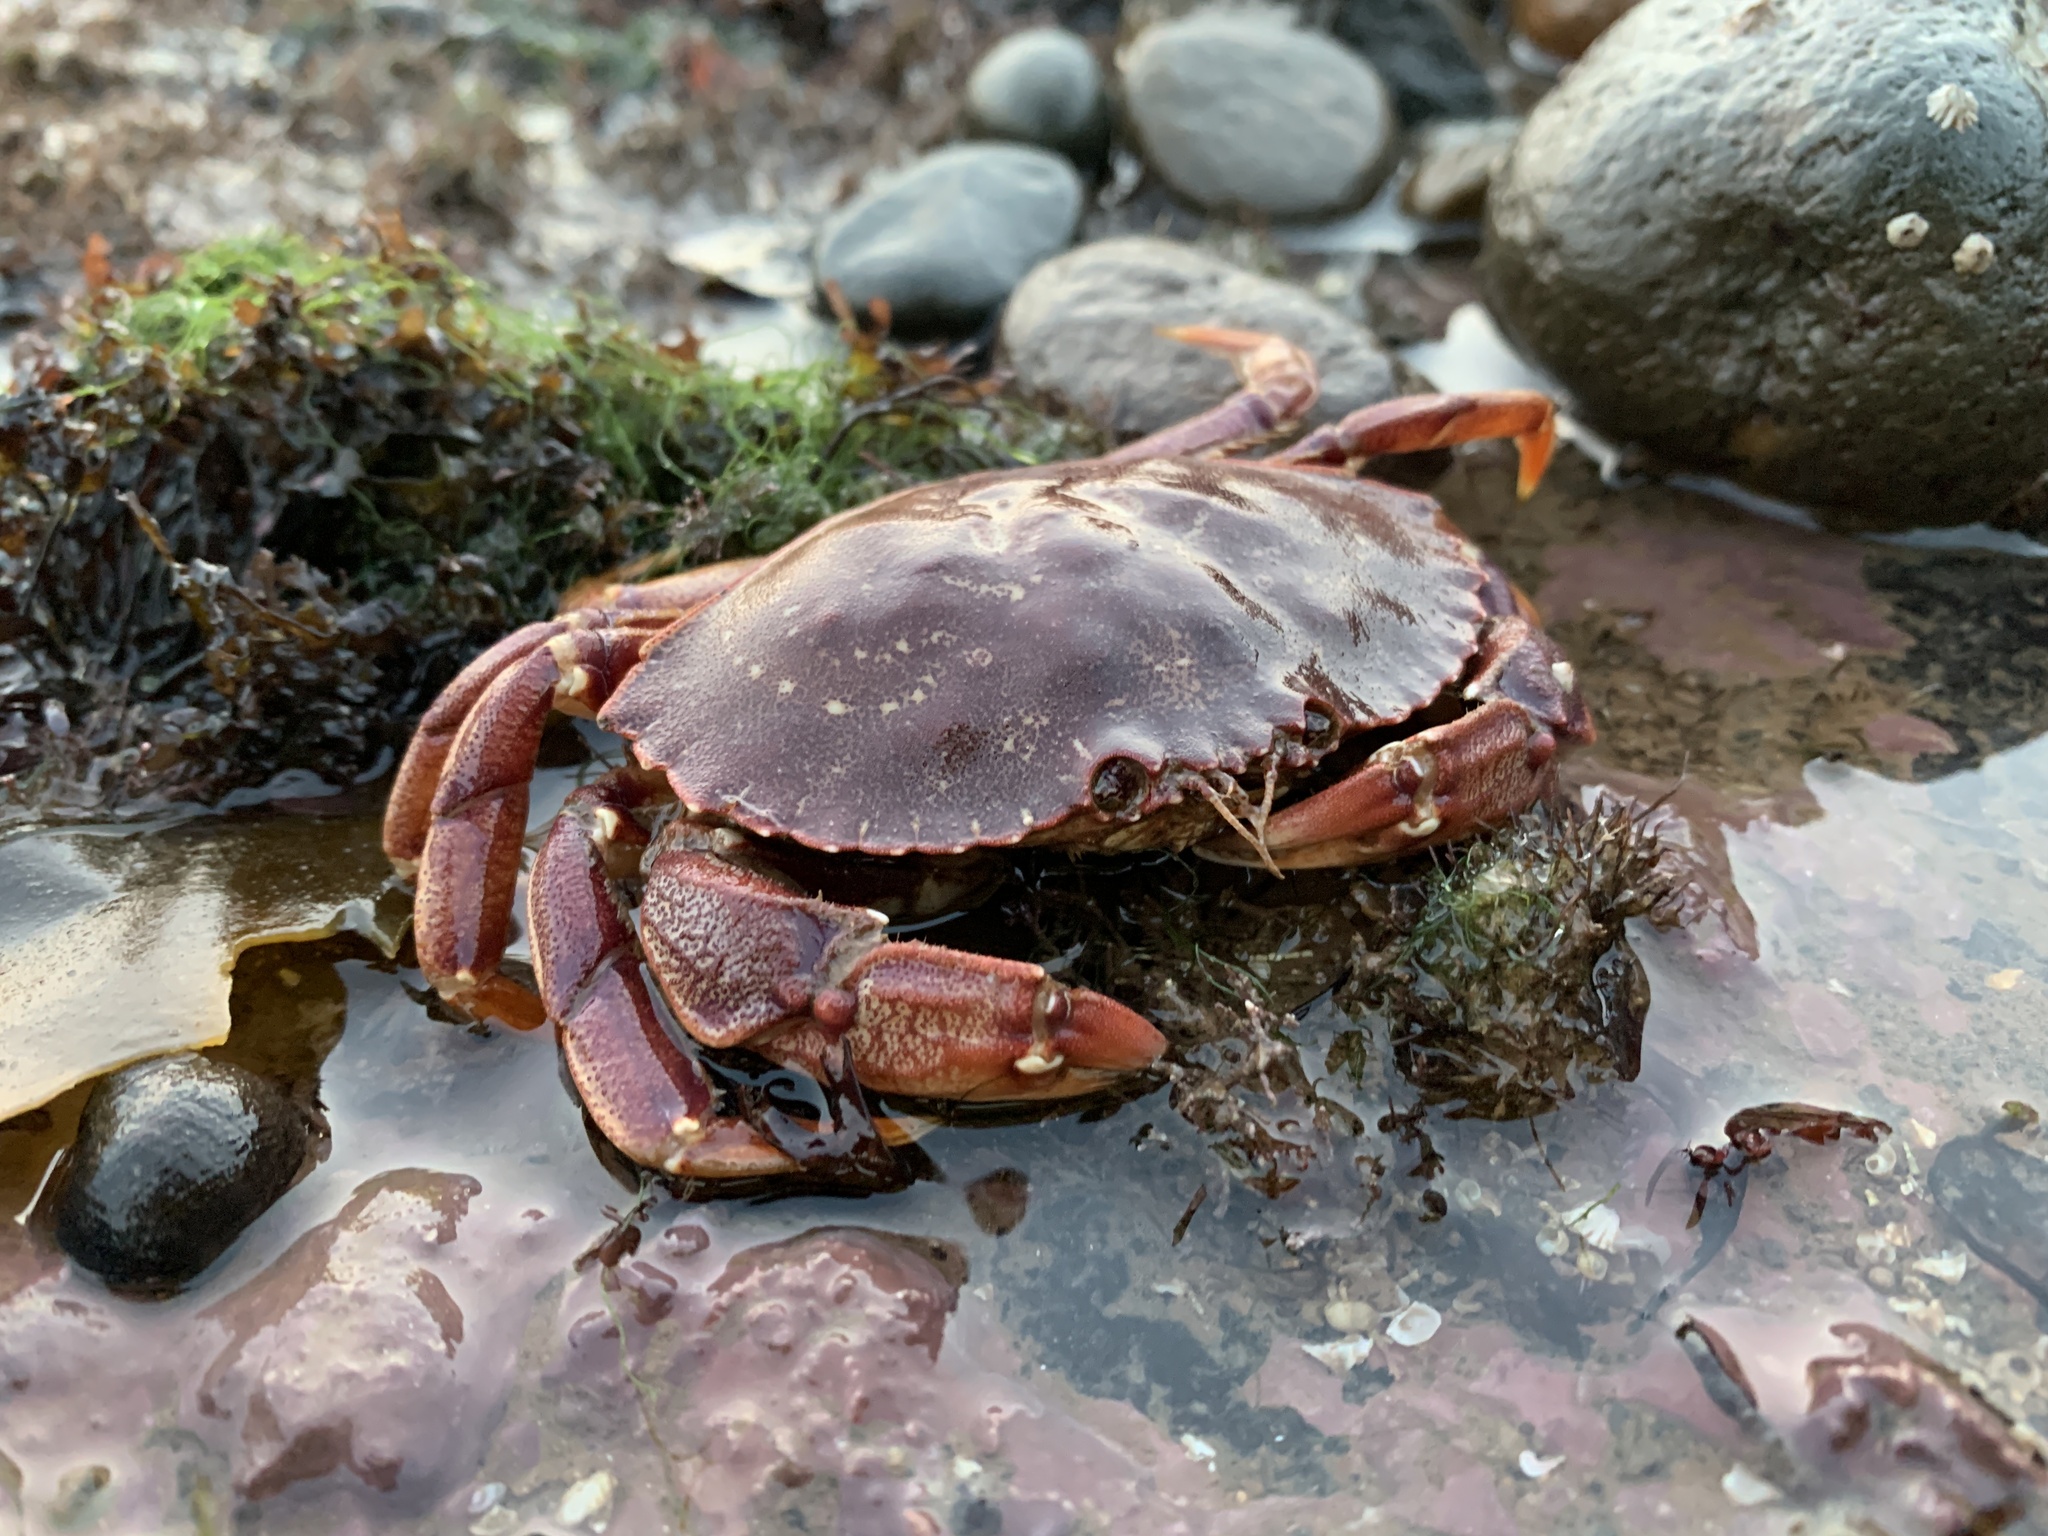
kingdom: Animalia
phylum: Arthropoda
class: Malacostraca
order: Decapoda
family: Cancridae
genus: Cancer
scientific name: Cancer irroratus
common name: Atlantic rock crab
